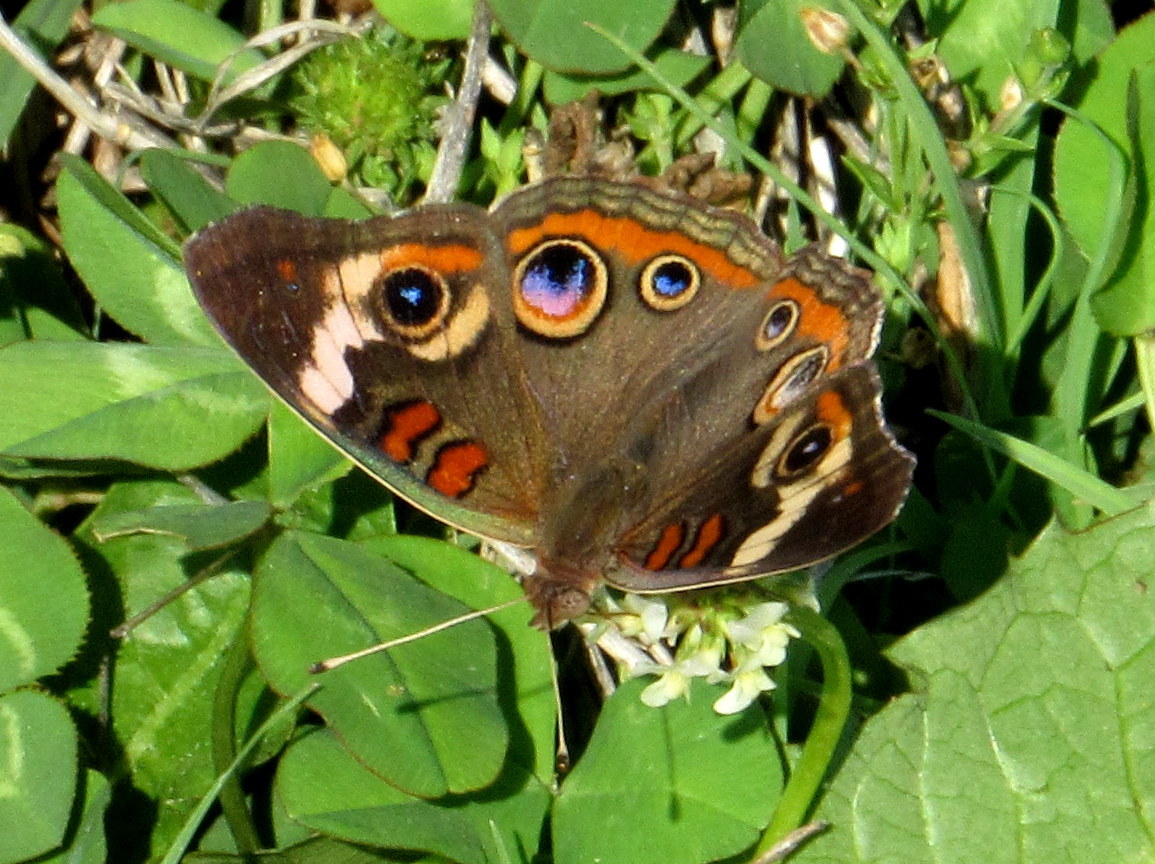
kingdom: Animalia
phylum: Arthropoda
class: Insecta
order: Lepidoptera
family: Nymphalidae
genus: Junonia
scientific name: Junonia coenia
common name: Common buckeye
